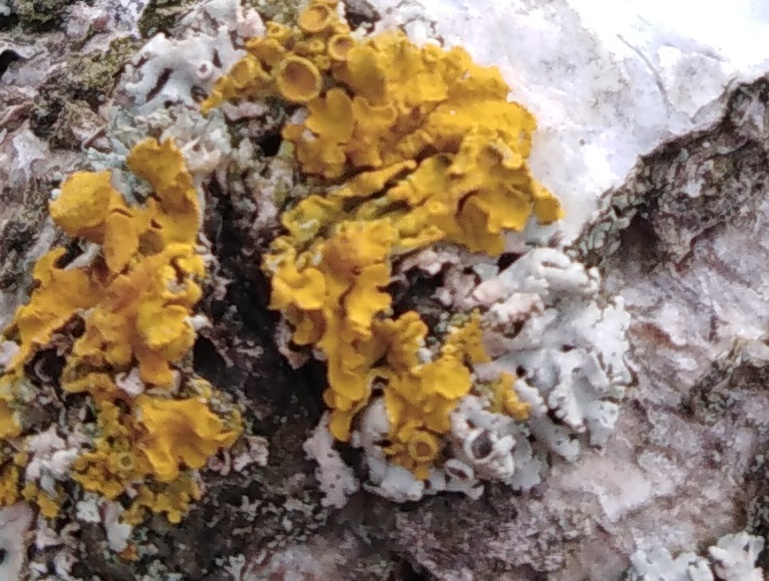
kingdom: Fungi
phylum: Ascomycota
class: Lecanoromycetes
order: Teloschistales
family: Teloschistaceae
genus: Xanthoria
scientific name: Xanthoria parietina
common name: Common orange lichen
